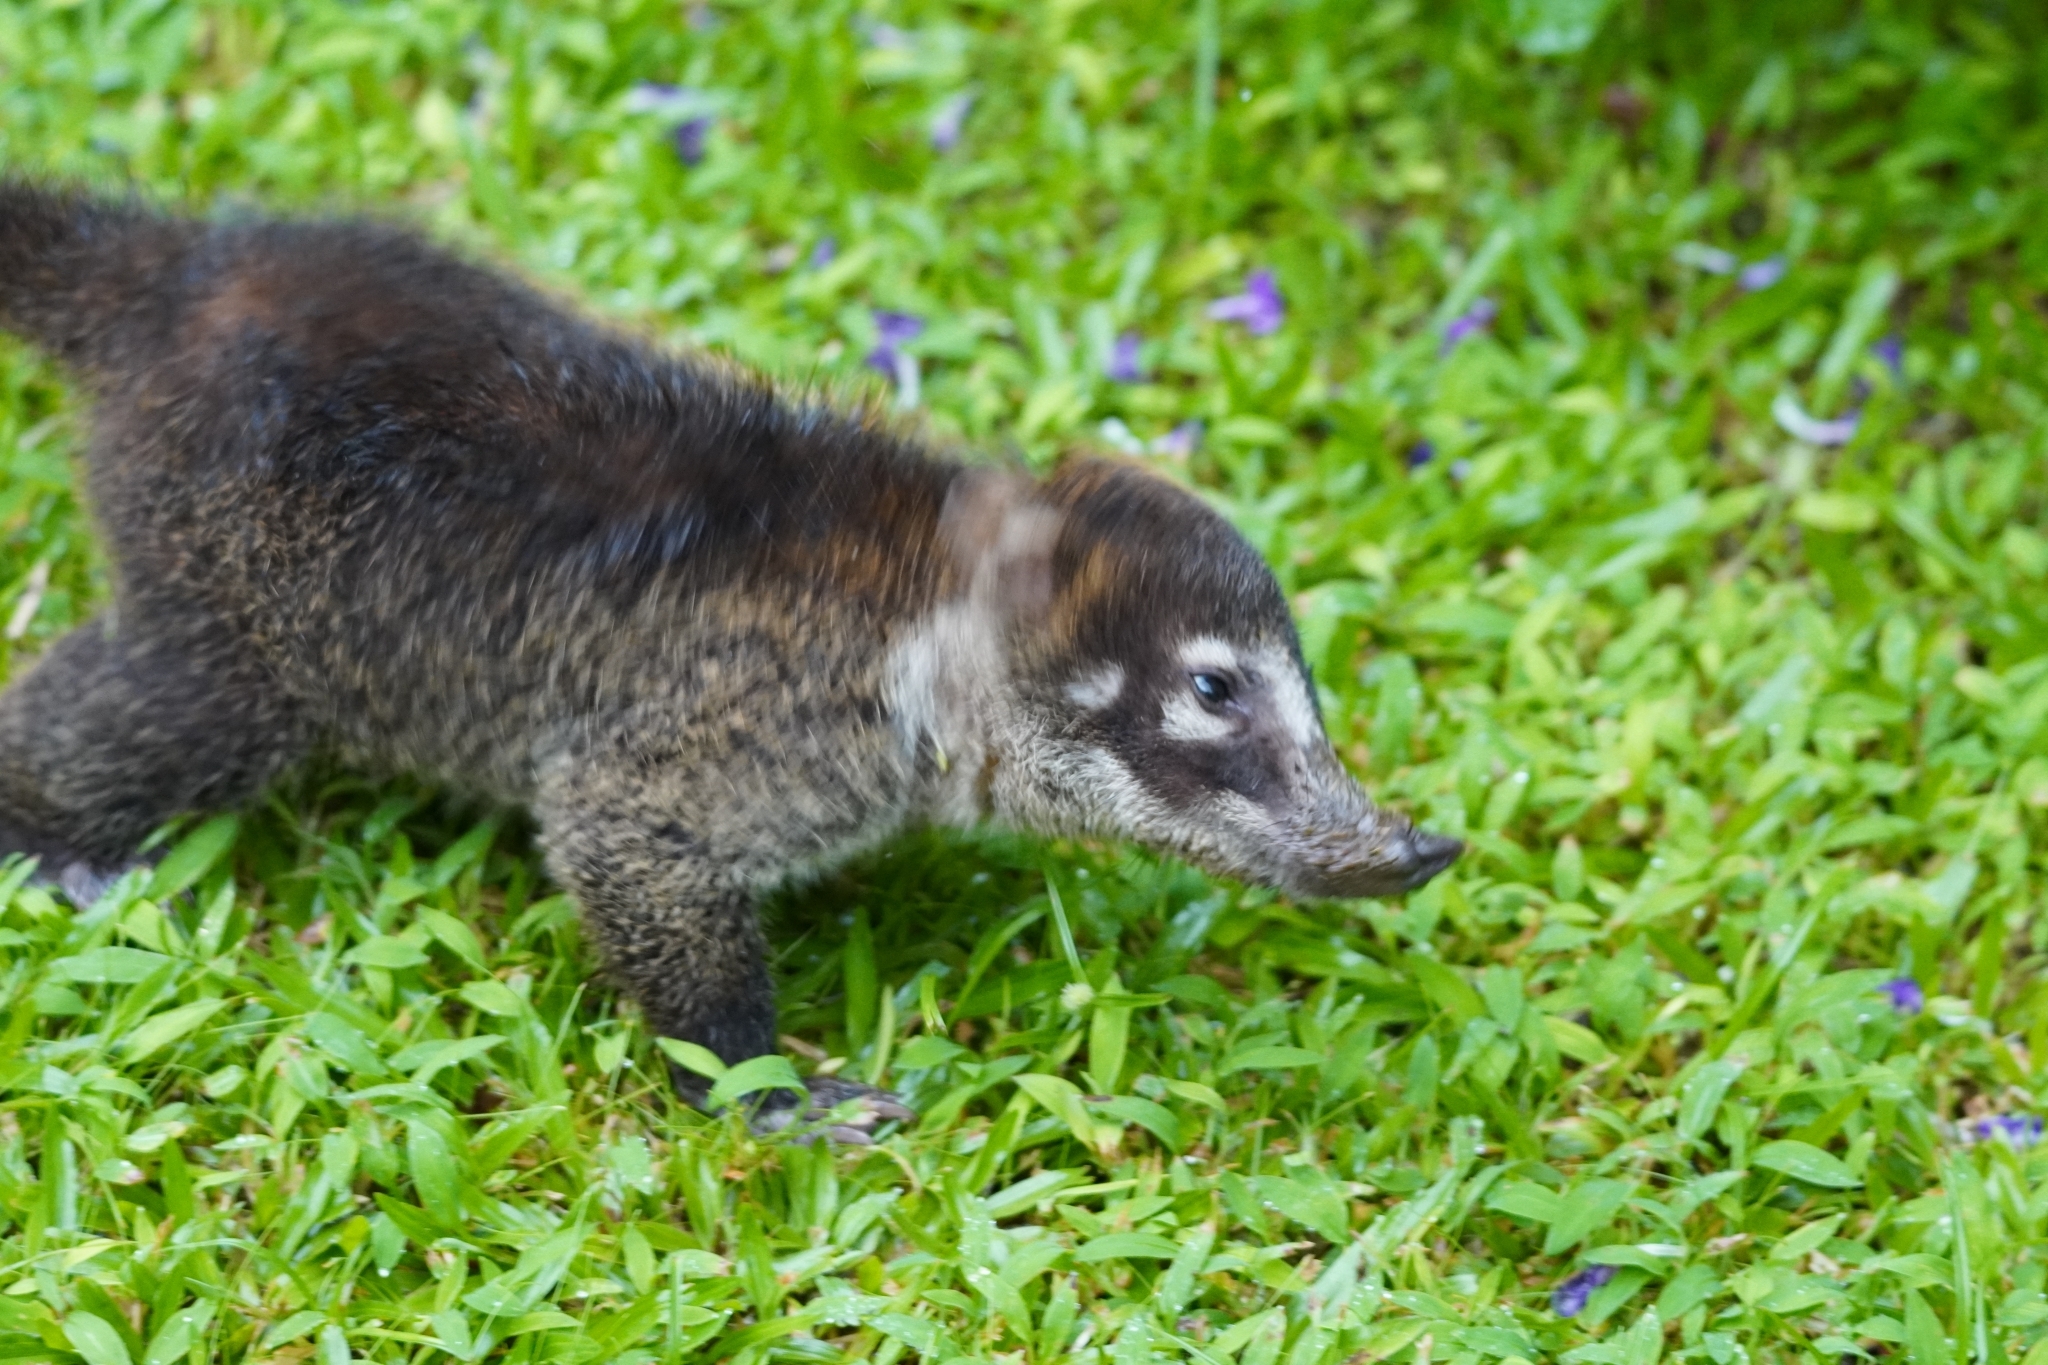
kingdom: Animalia
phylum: Chordata
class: Mammalia
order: Carnivora
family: Procyonidae
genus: Nasua
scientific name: Nasua narica
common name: White-nosed coati
